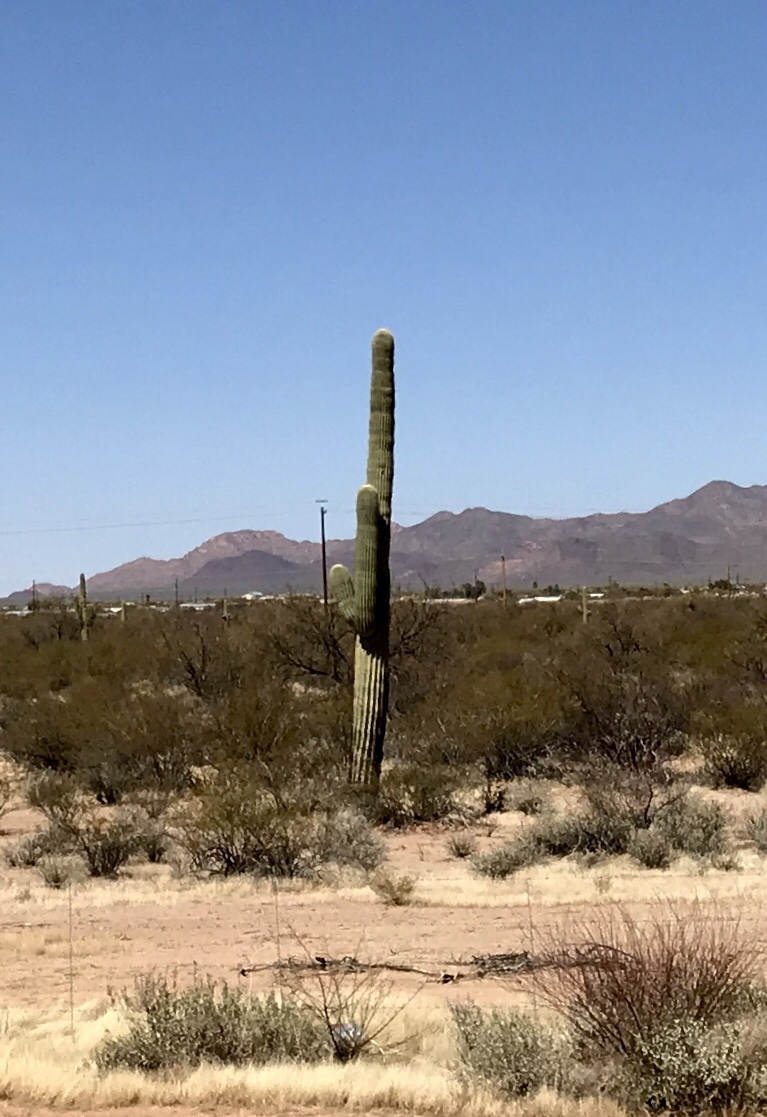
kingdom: Plantae
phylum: Tracheophyta
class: Magnoliopsida
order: Caryophyllales
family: Cactaceae
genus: Carnegiea
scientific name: Carnegiea gigantea
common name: Saguaro
